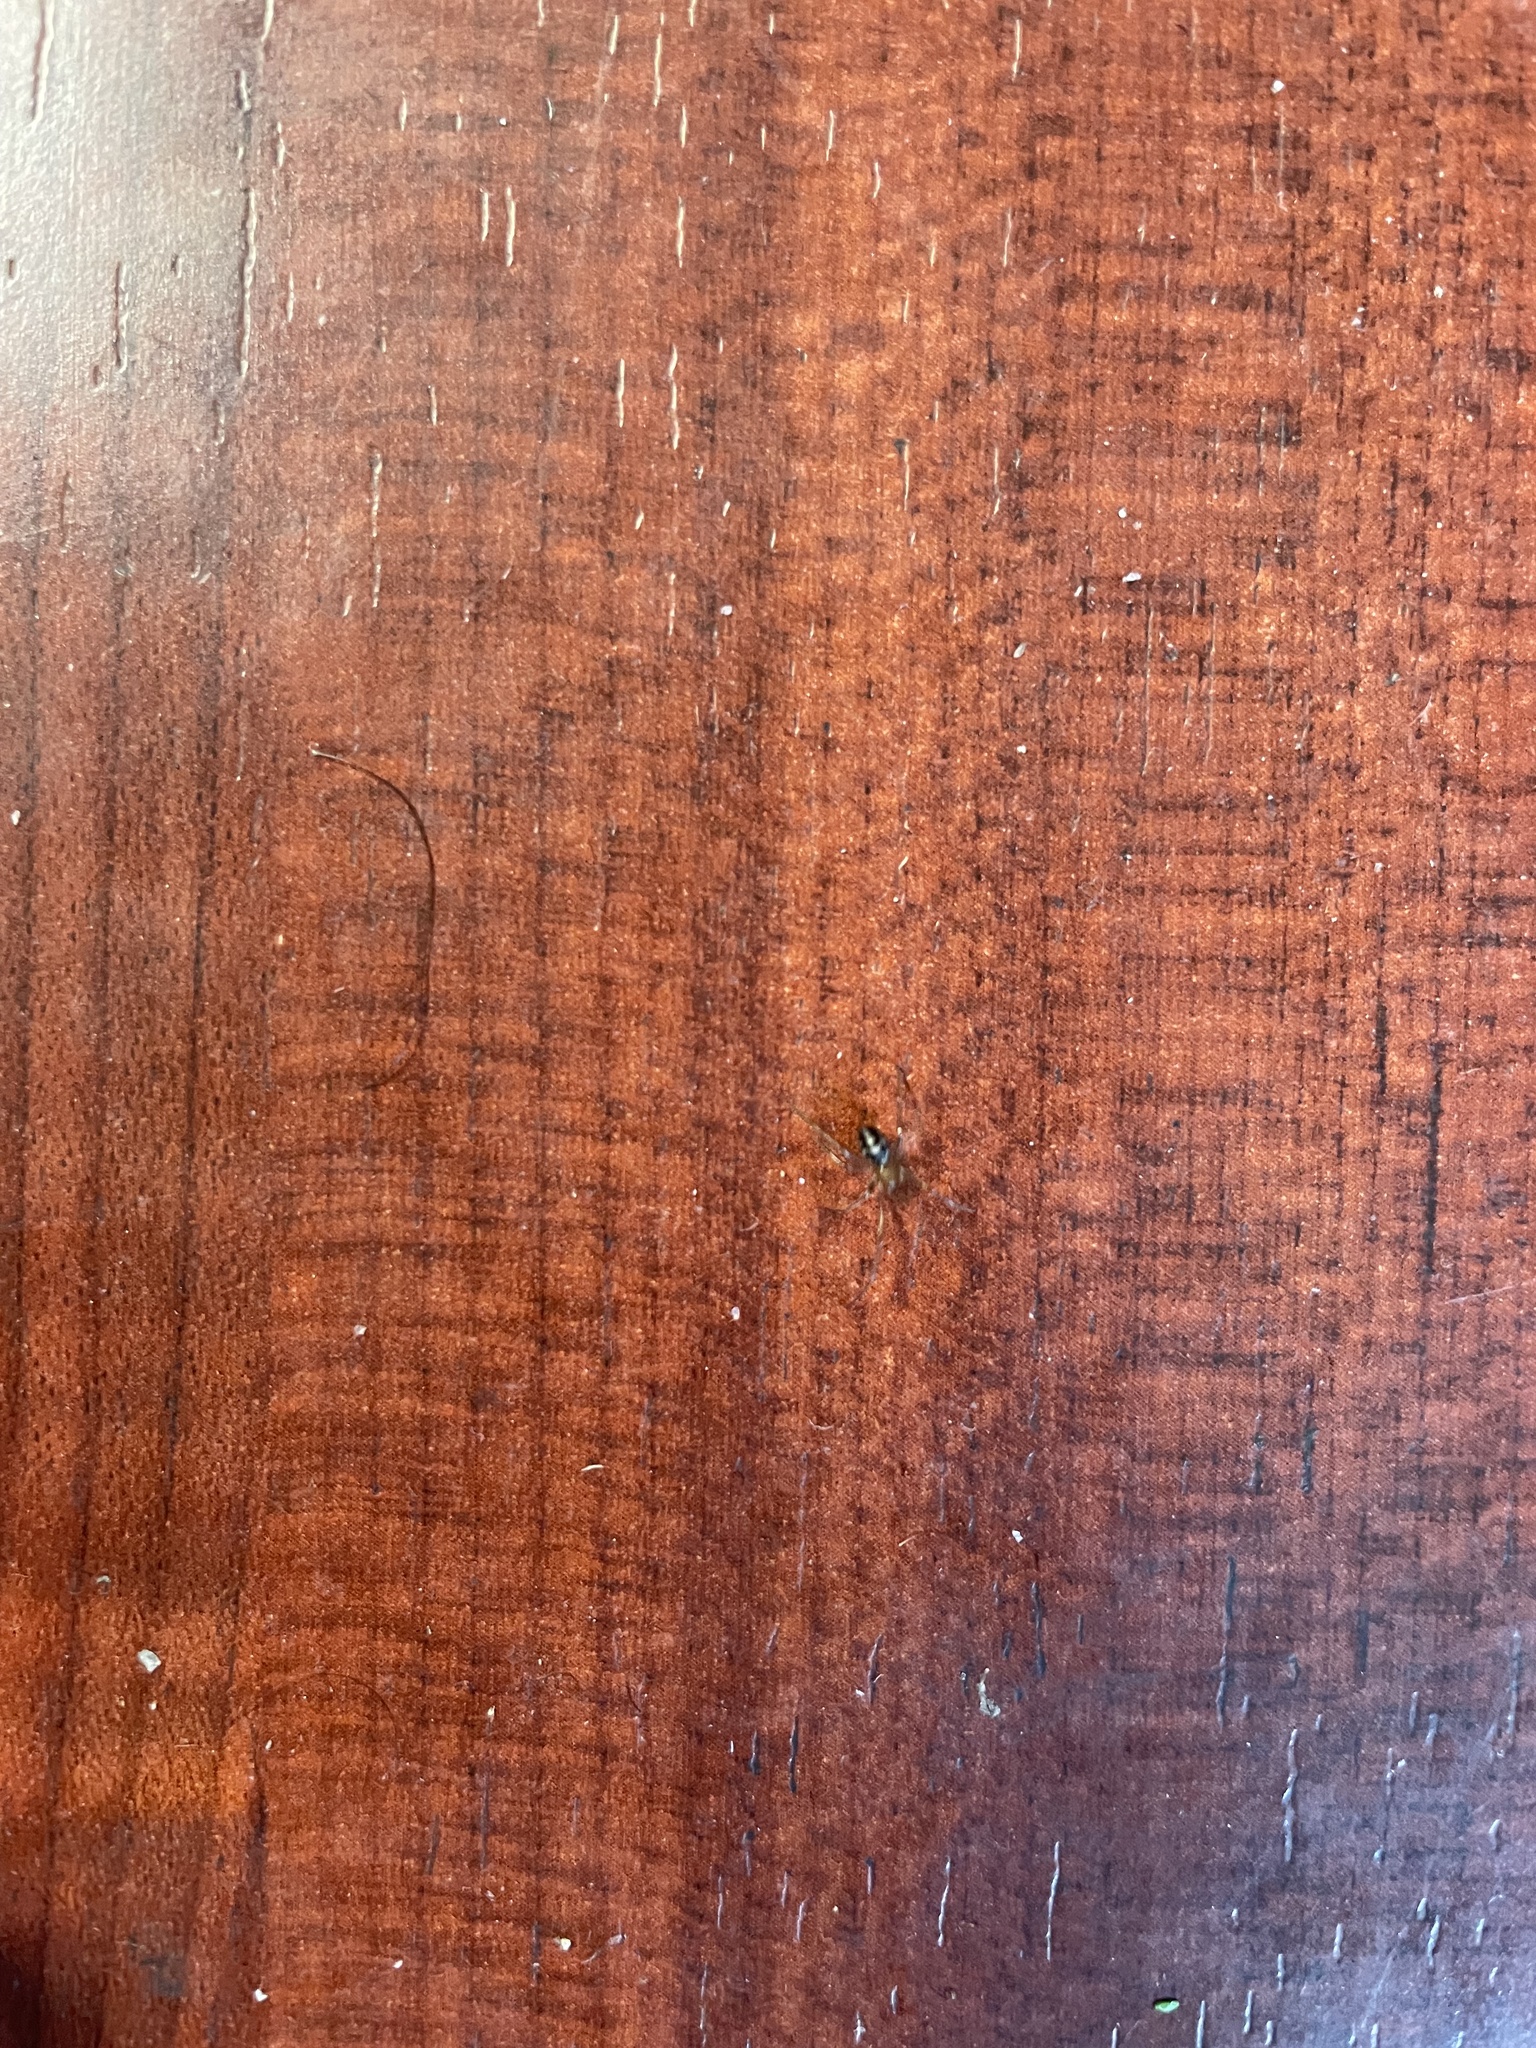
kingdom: Animalia
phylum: Arthropoda
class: Arachnida
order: Araneae
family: Theridiidae
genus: Steatoda
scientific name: Steatoda grossa
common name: False black widow
